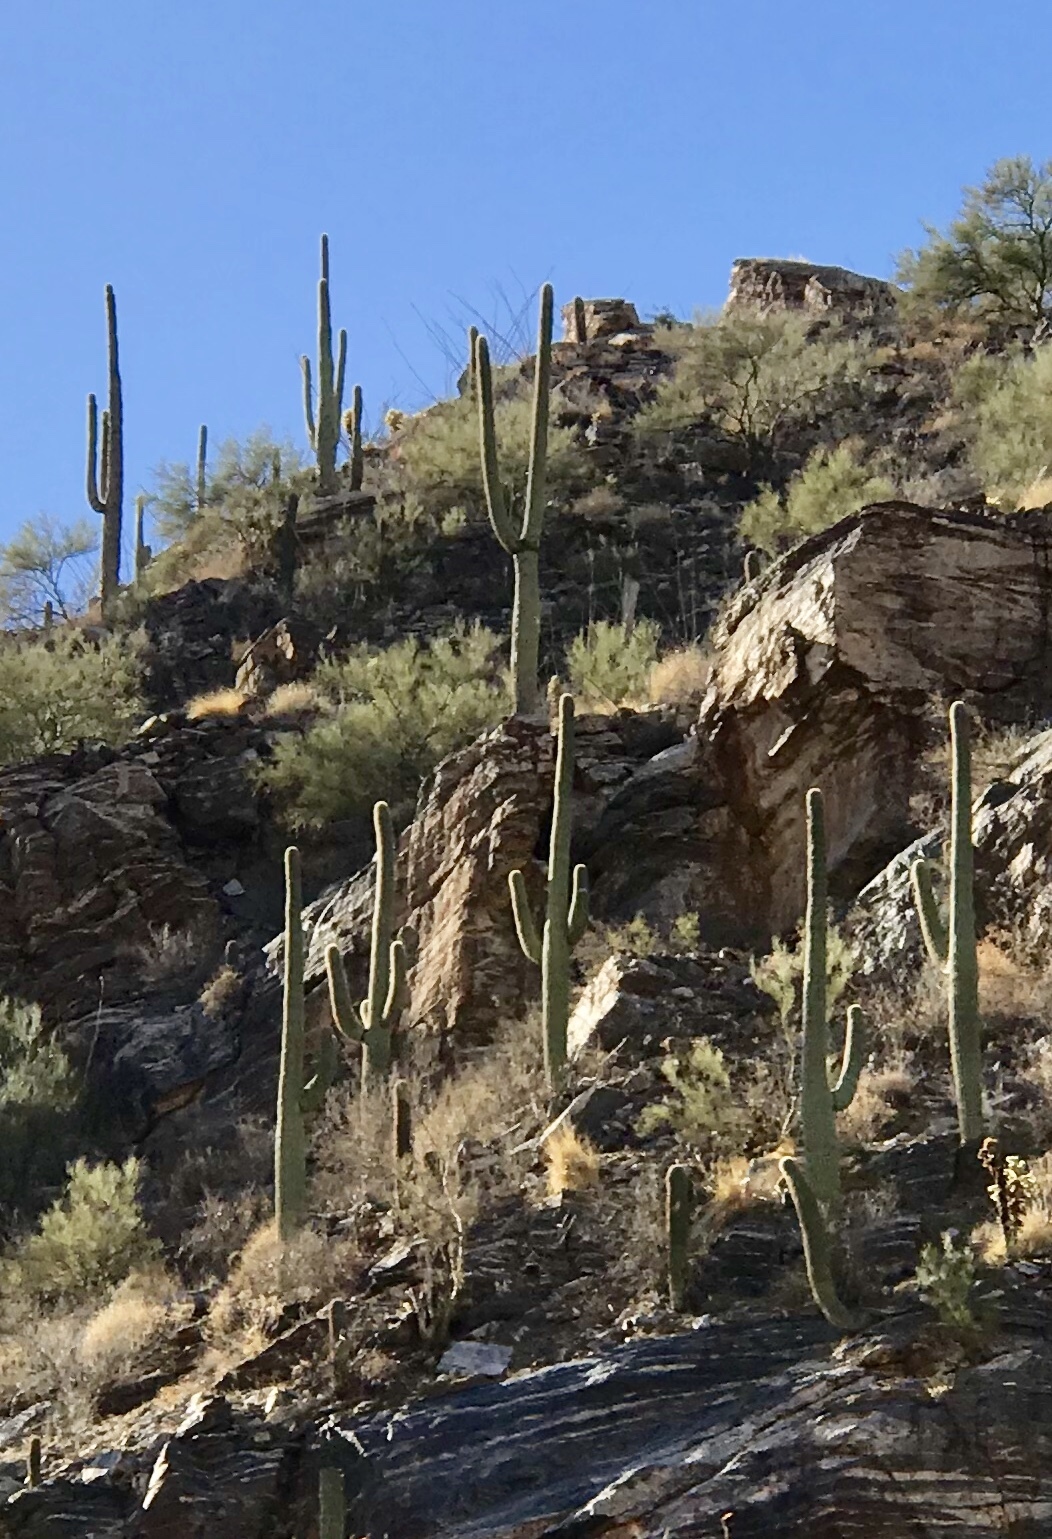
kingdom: Plantae
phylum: Tracheophyta
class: Magnoliopsida
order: Caryophyllales
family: Cactaceae
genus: Carnegiea
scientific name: Carnegiea gigantea
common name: Saguaro
